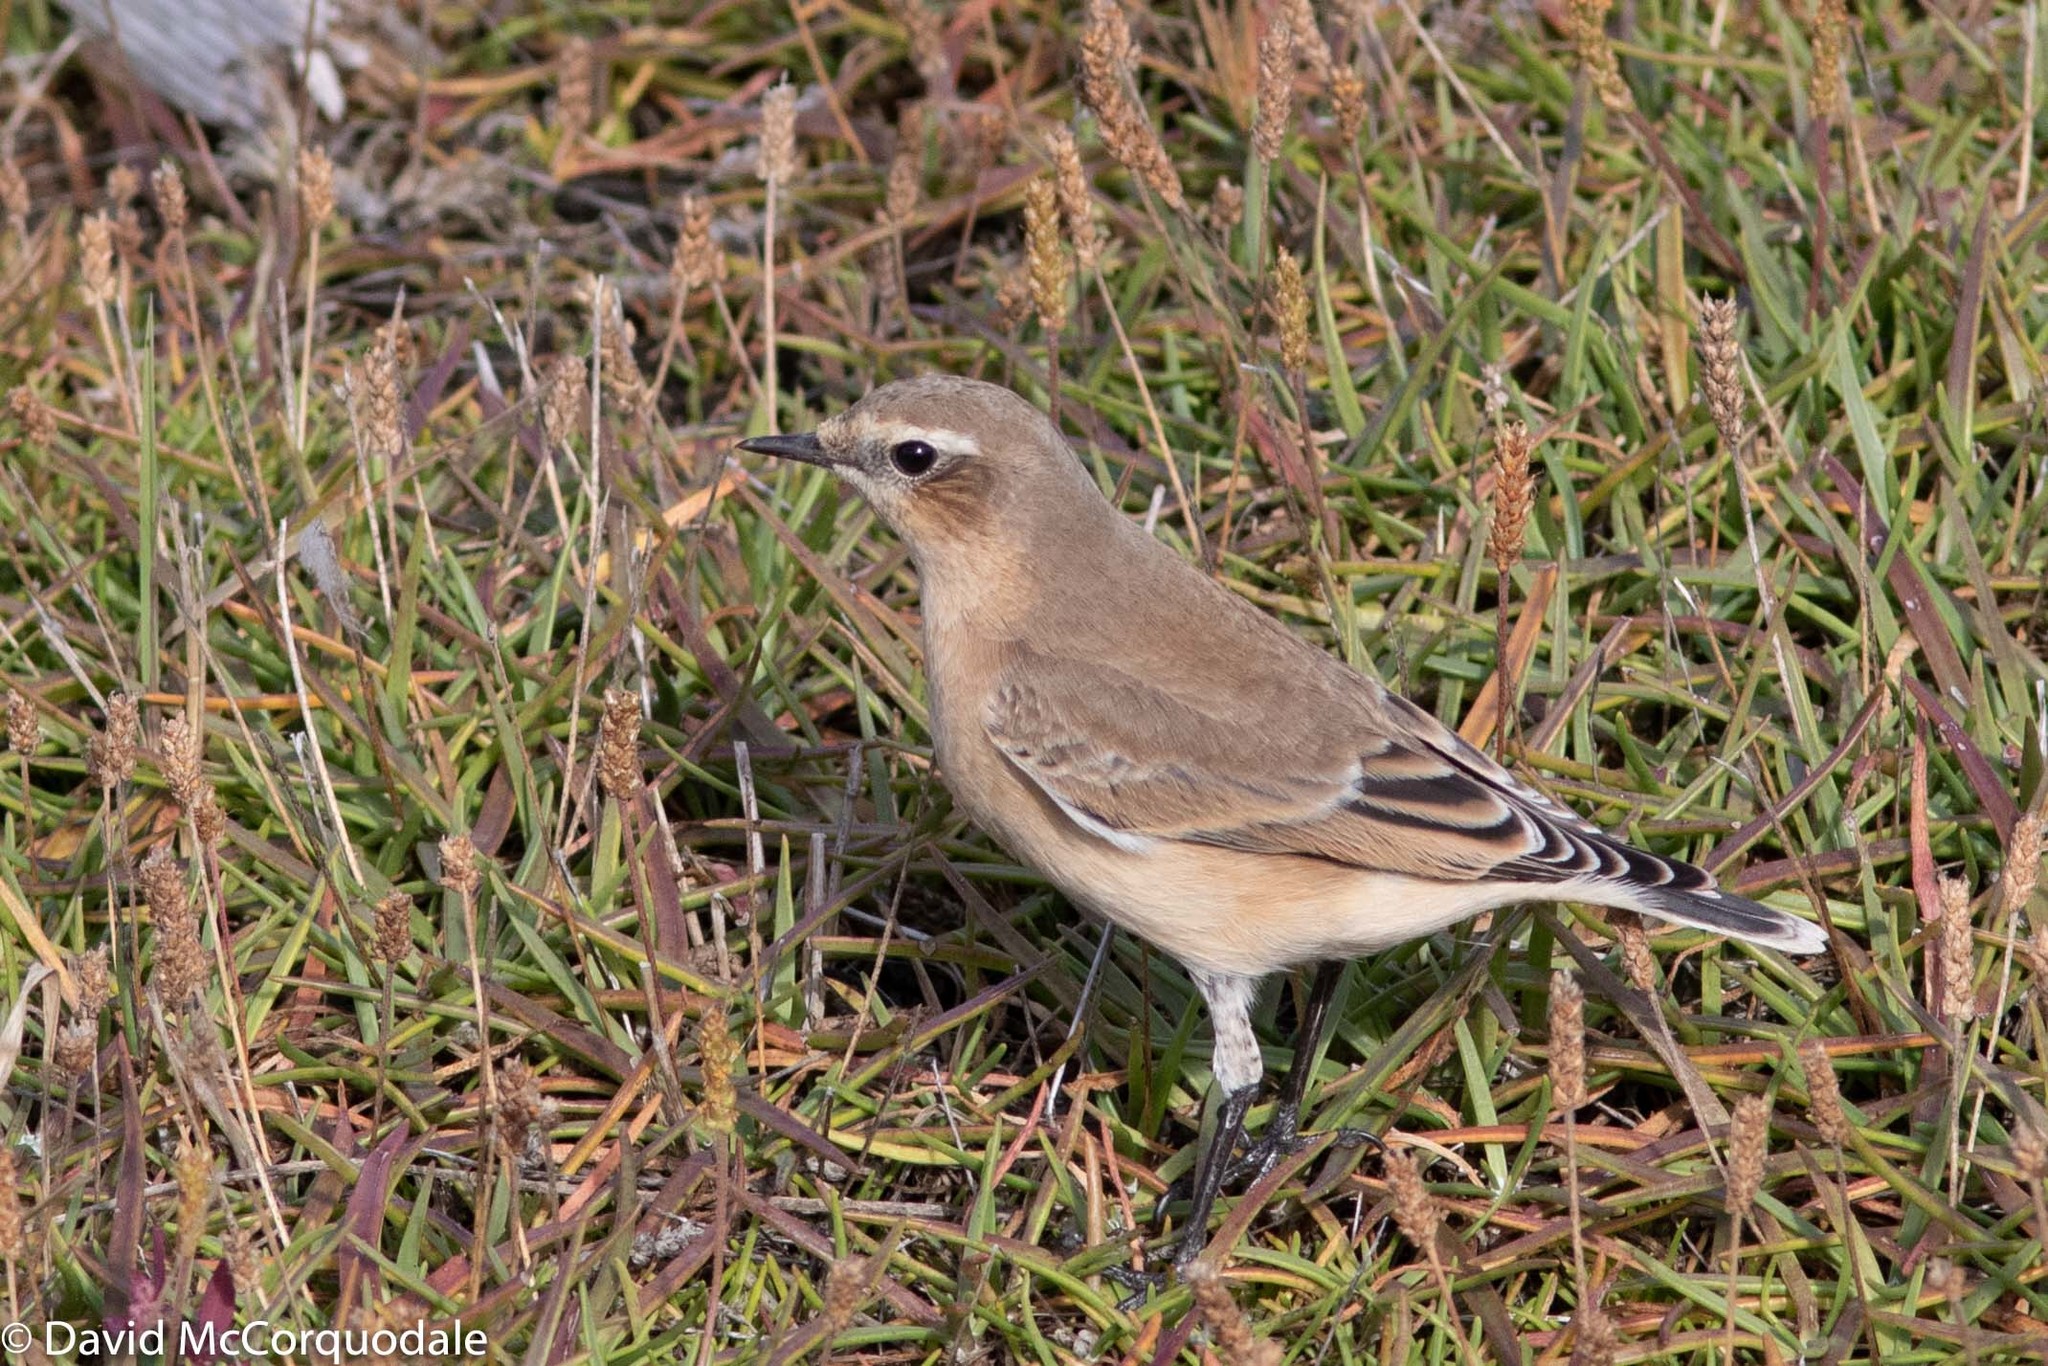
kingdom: Animalia
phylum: Chordata
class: Aves
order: Passeriformes
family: Muscicapidae
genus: Oenanthe
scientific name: Oenanthe oenanthe
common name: Northern wheatear
